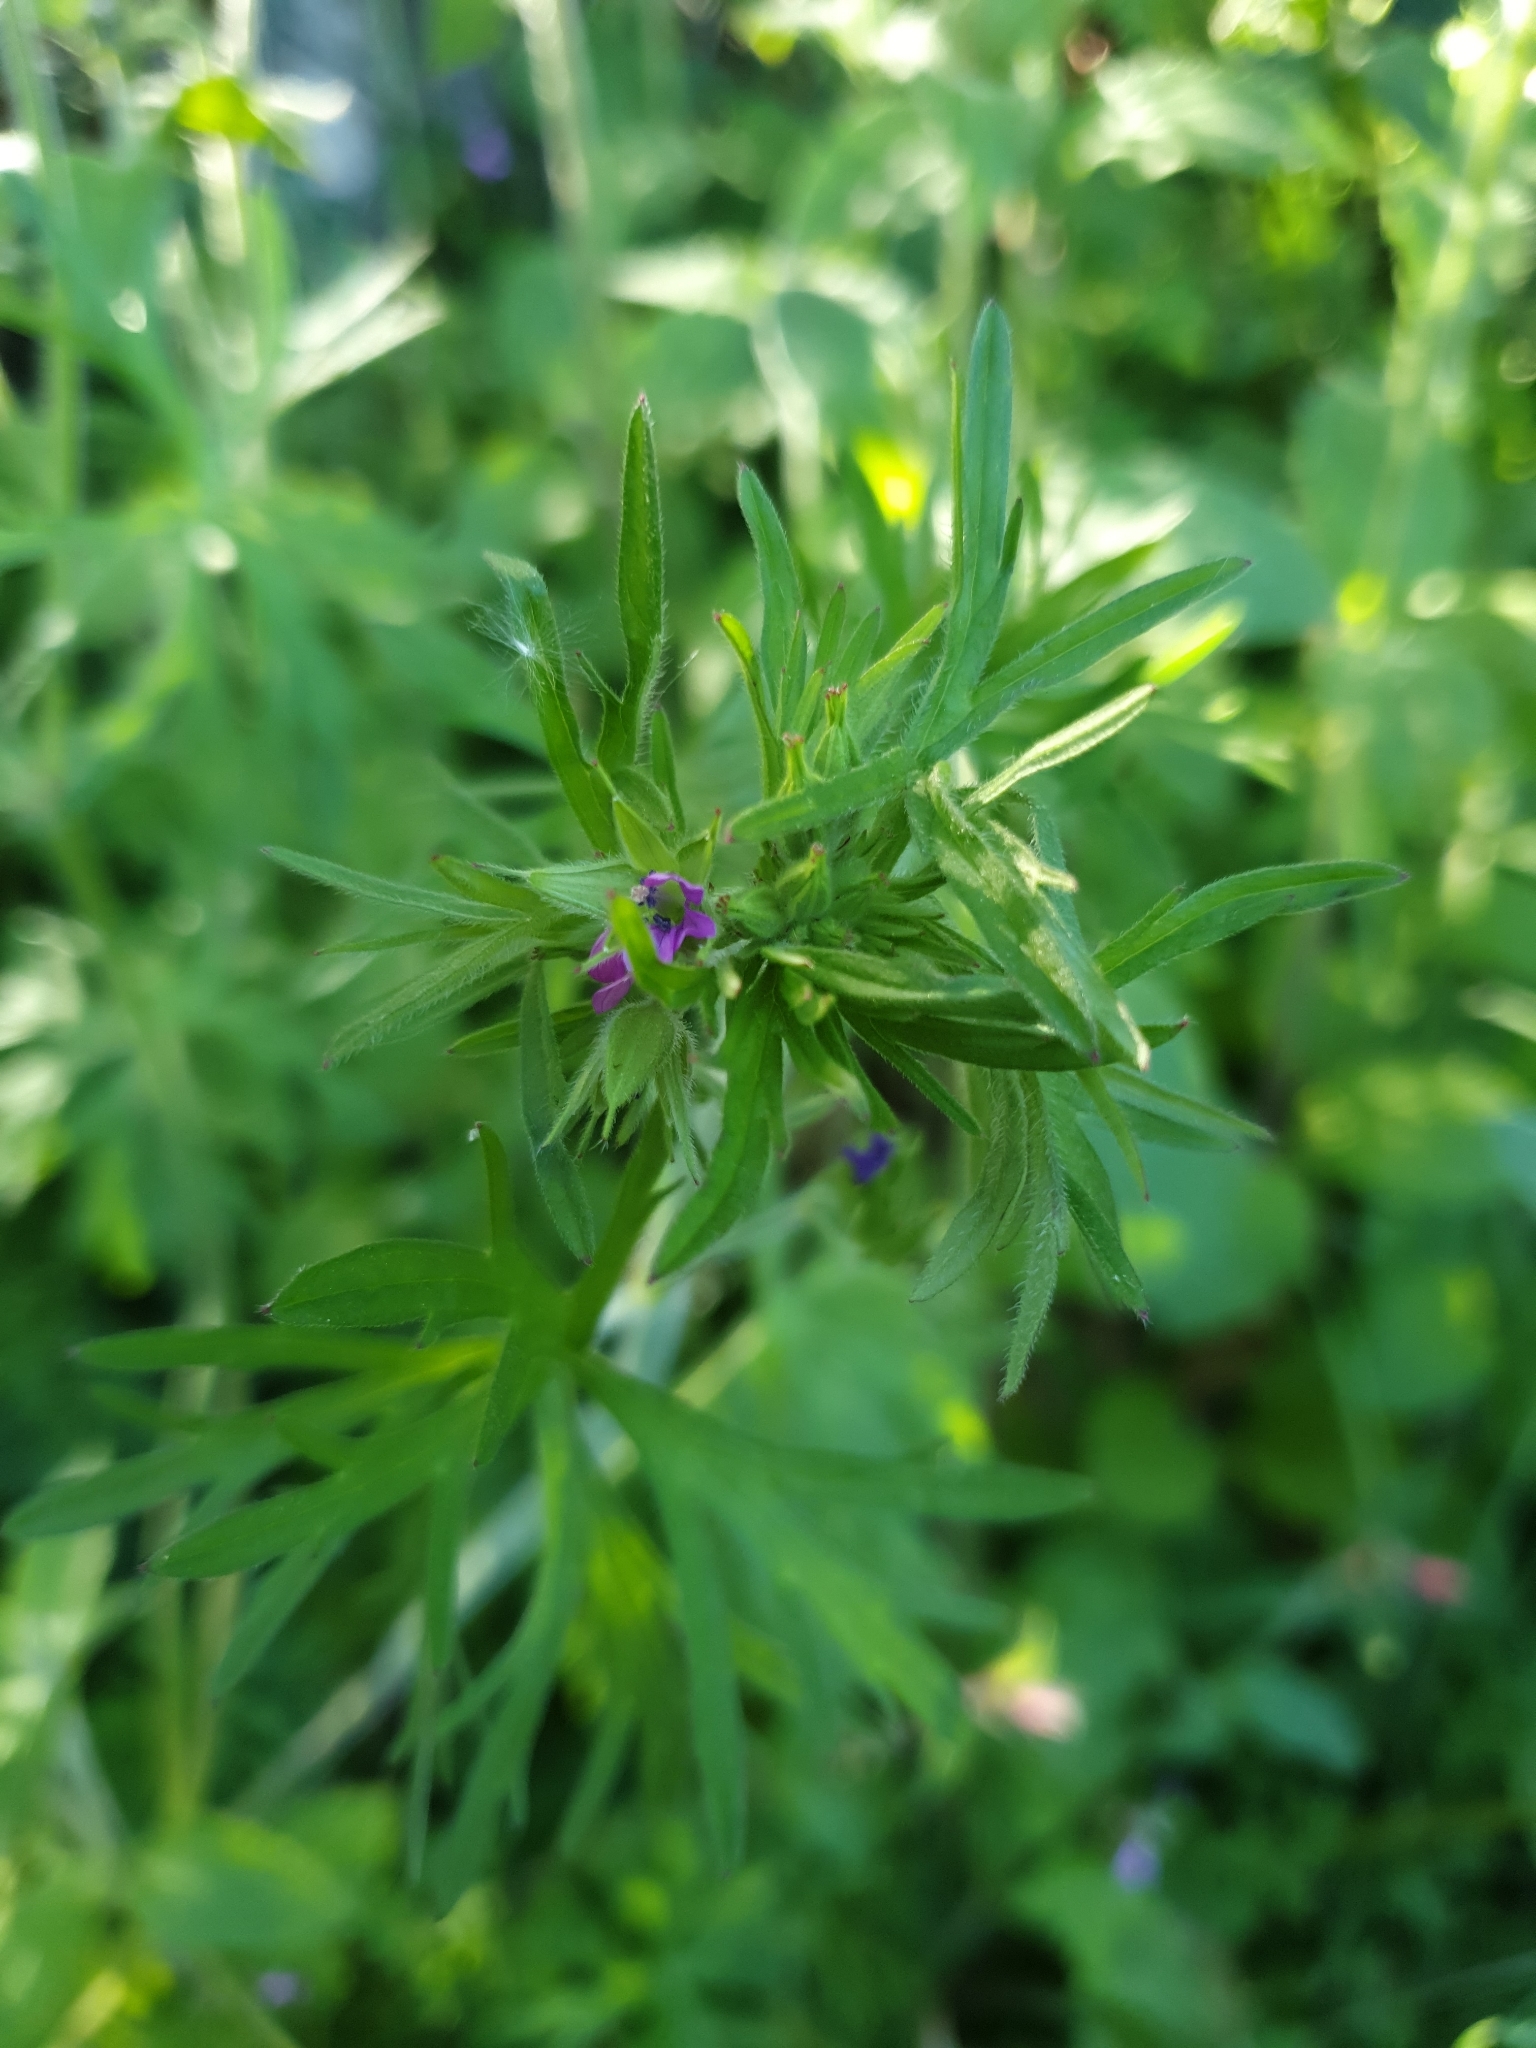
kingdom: Plantae
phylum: Tracheophyta
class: Magnoliopsida
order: Geraniales
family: Geraniaceae
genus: Geranium
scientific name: Geranium dissectum
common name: Cut-leaved crane's-bill
